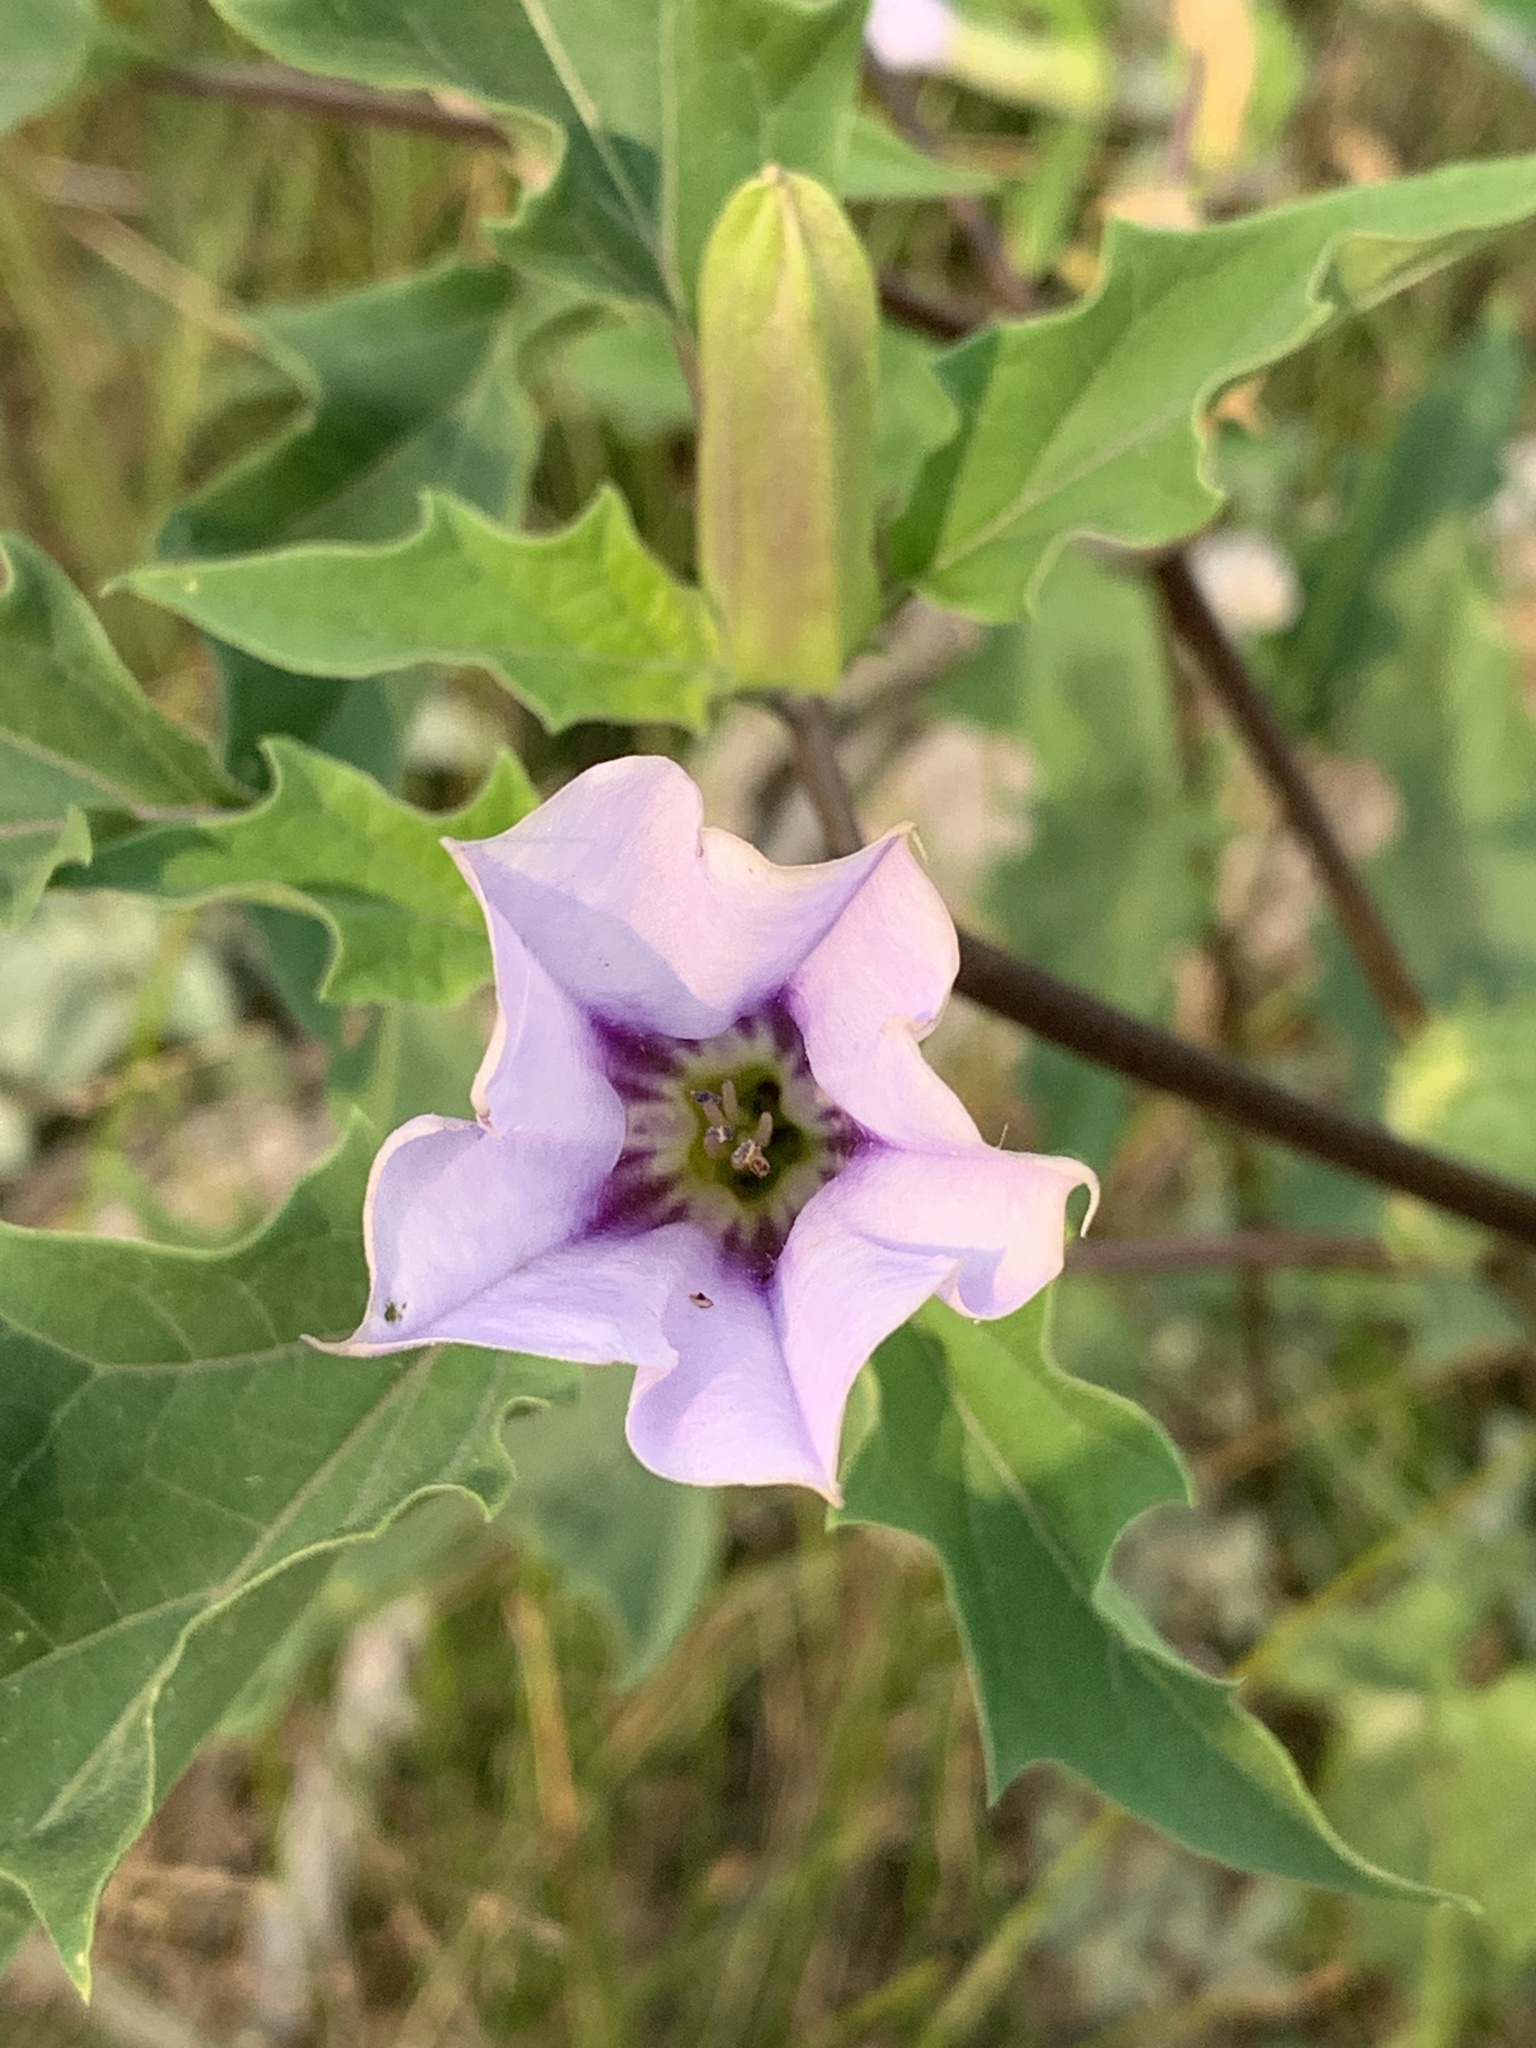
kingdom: Plantae
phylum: Tracheophyta
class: Magnoliopsida
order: Solanales
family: Solanaceae
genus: Datura
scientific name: Datura stramonium
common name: Thorn-apple
